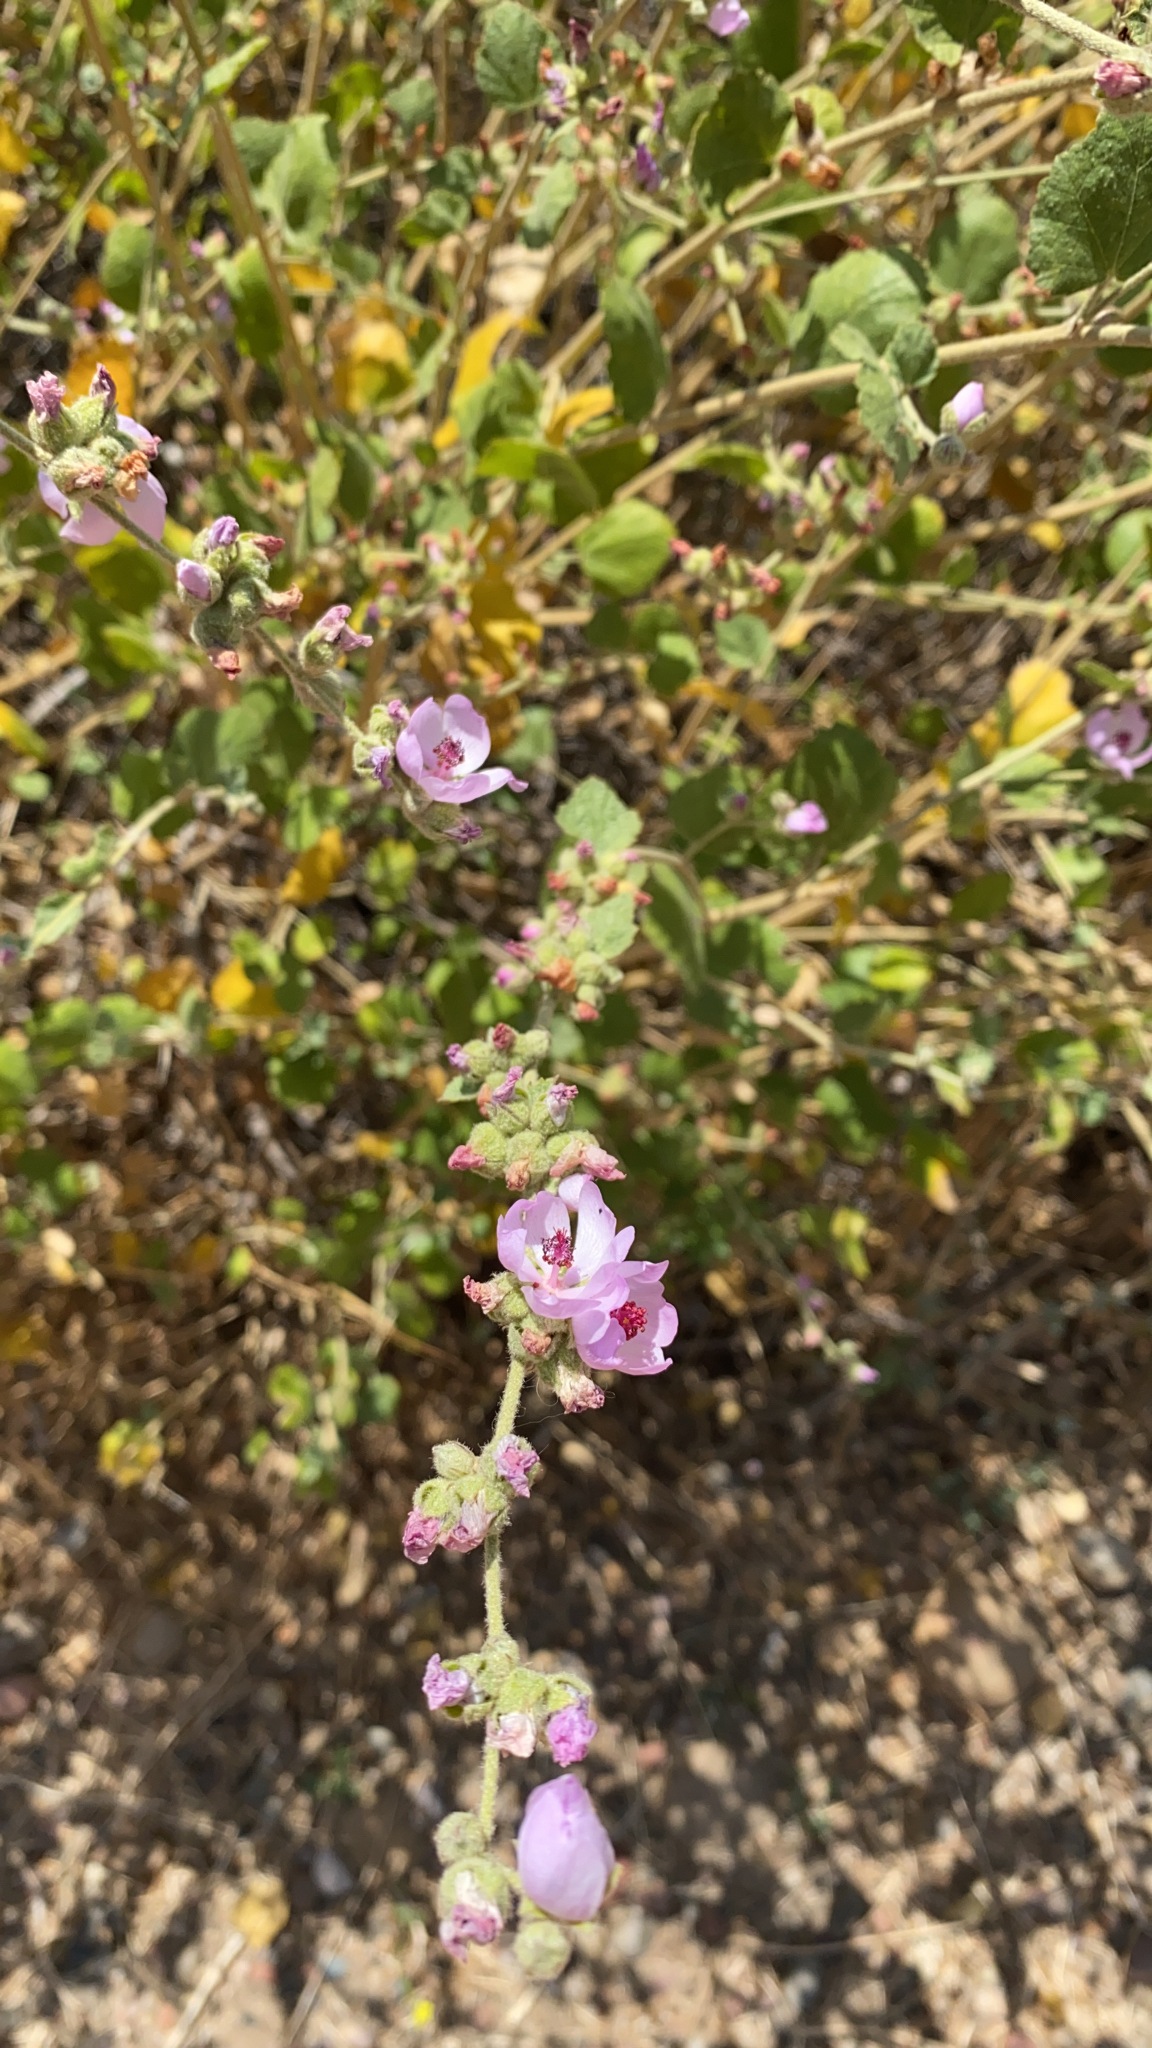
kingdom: Plantae
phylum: Tracheophyta
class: Magnoliopsida
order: Malvales
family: Malvaceae
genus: Malacothamnus
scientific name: Malacothamnus fasciculatus
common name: Sant cruz island bush-mallow
